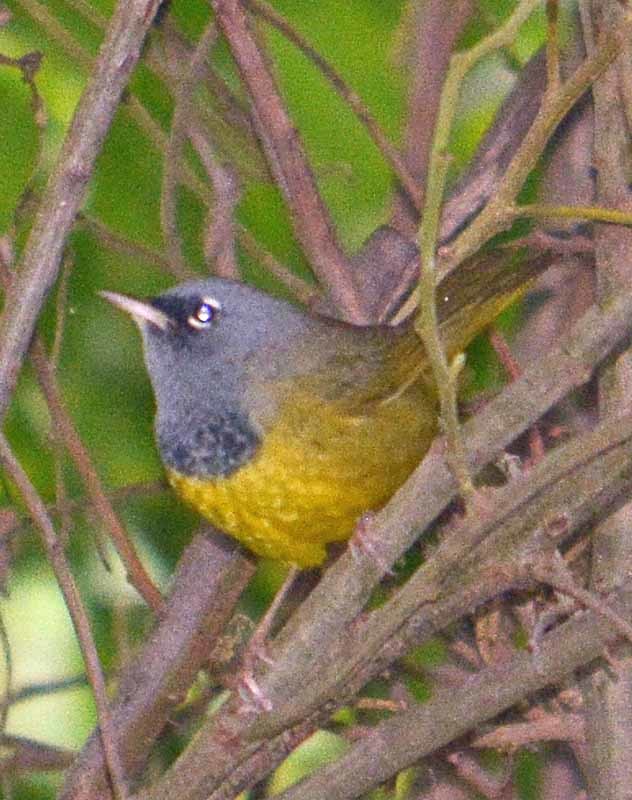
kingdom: Animalia
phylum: Chordata
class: Aves
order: Passeriformes
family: Parulidae
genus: Geothlypis
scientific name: Geothlypis tolmiei
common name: Macgillivray's warbler
